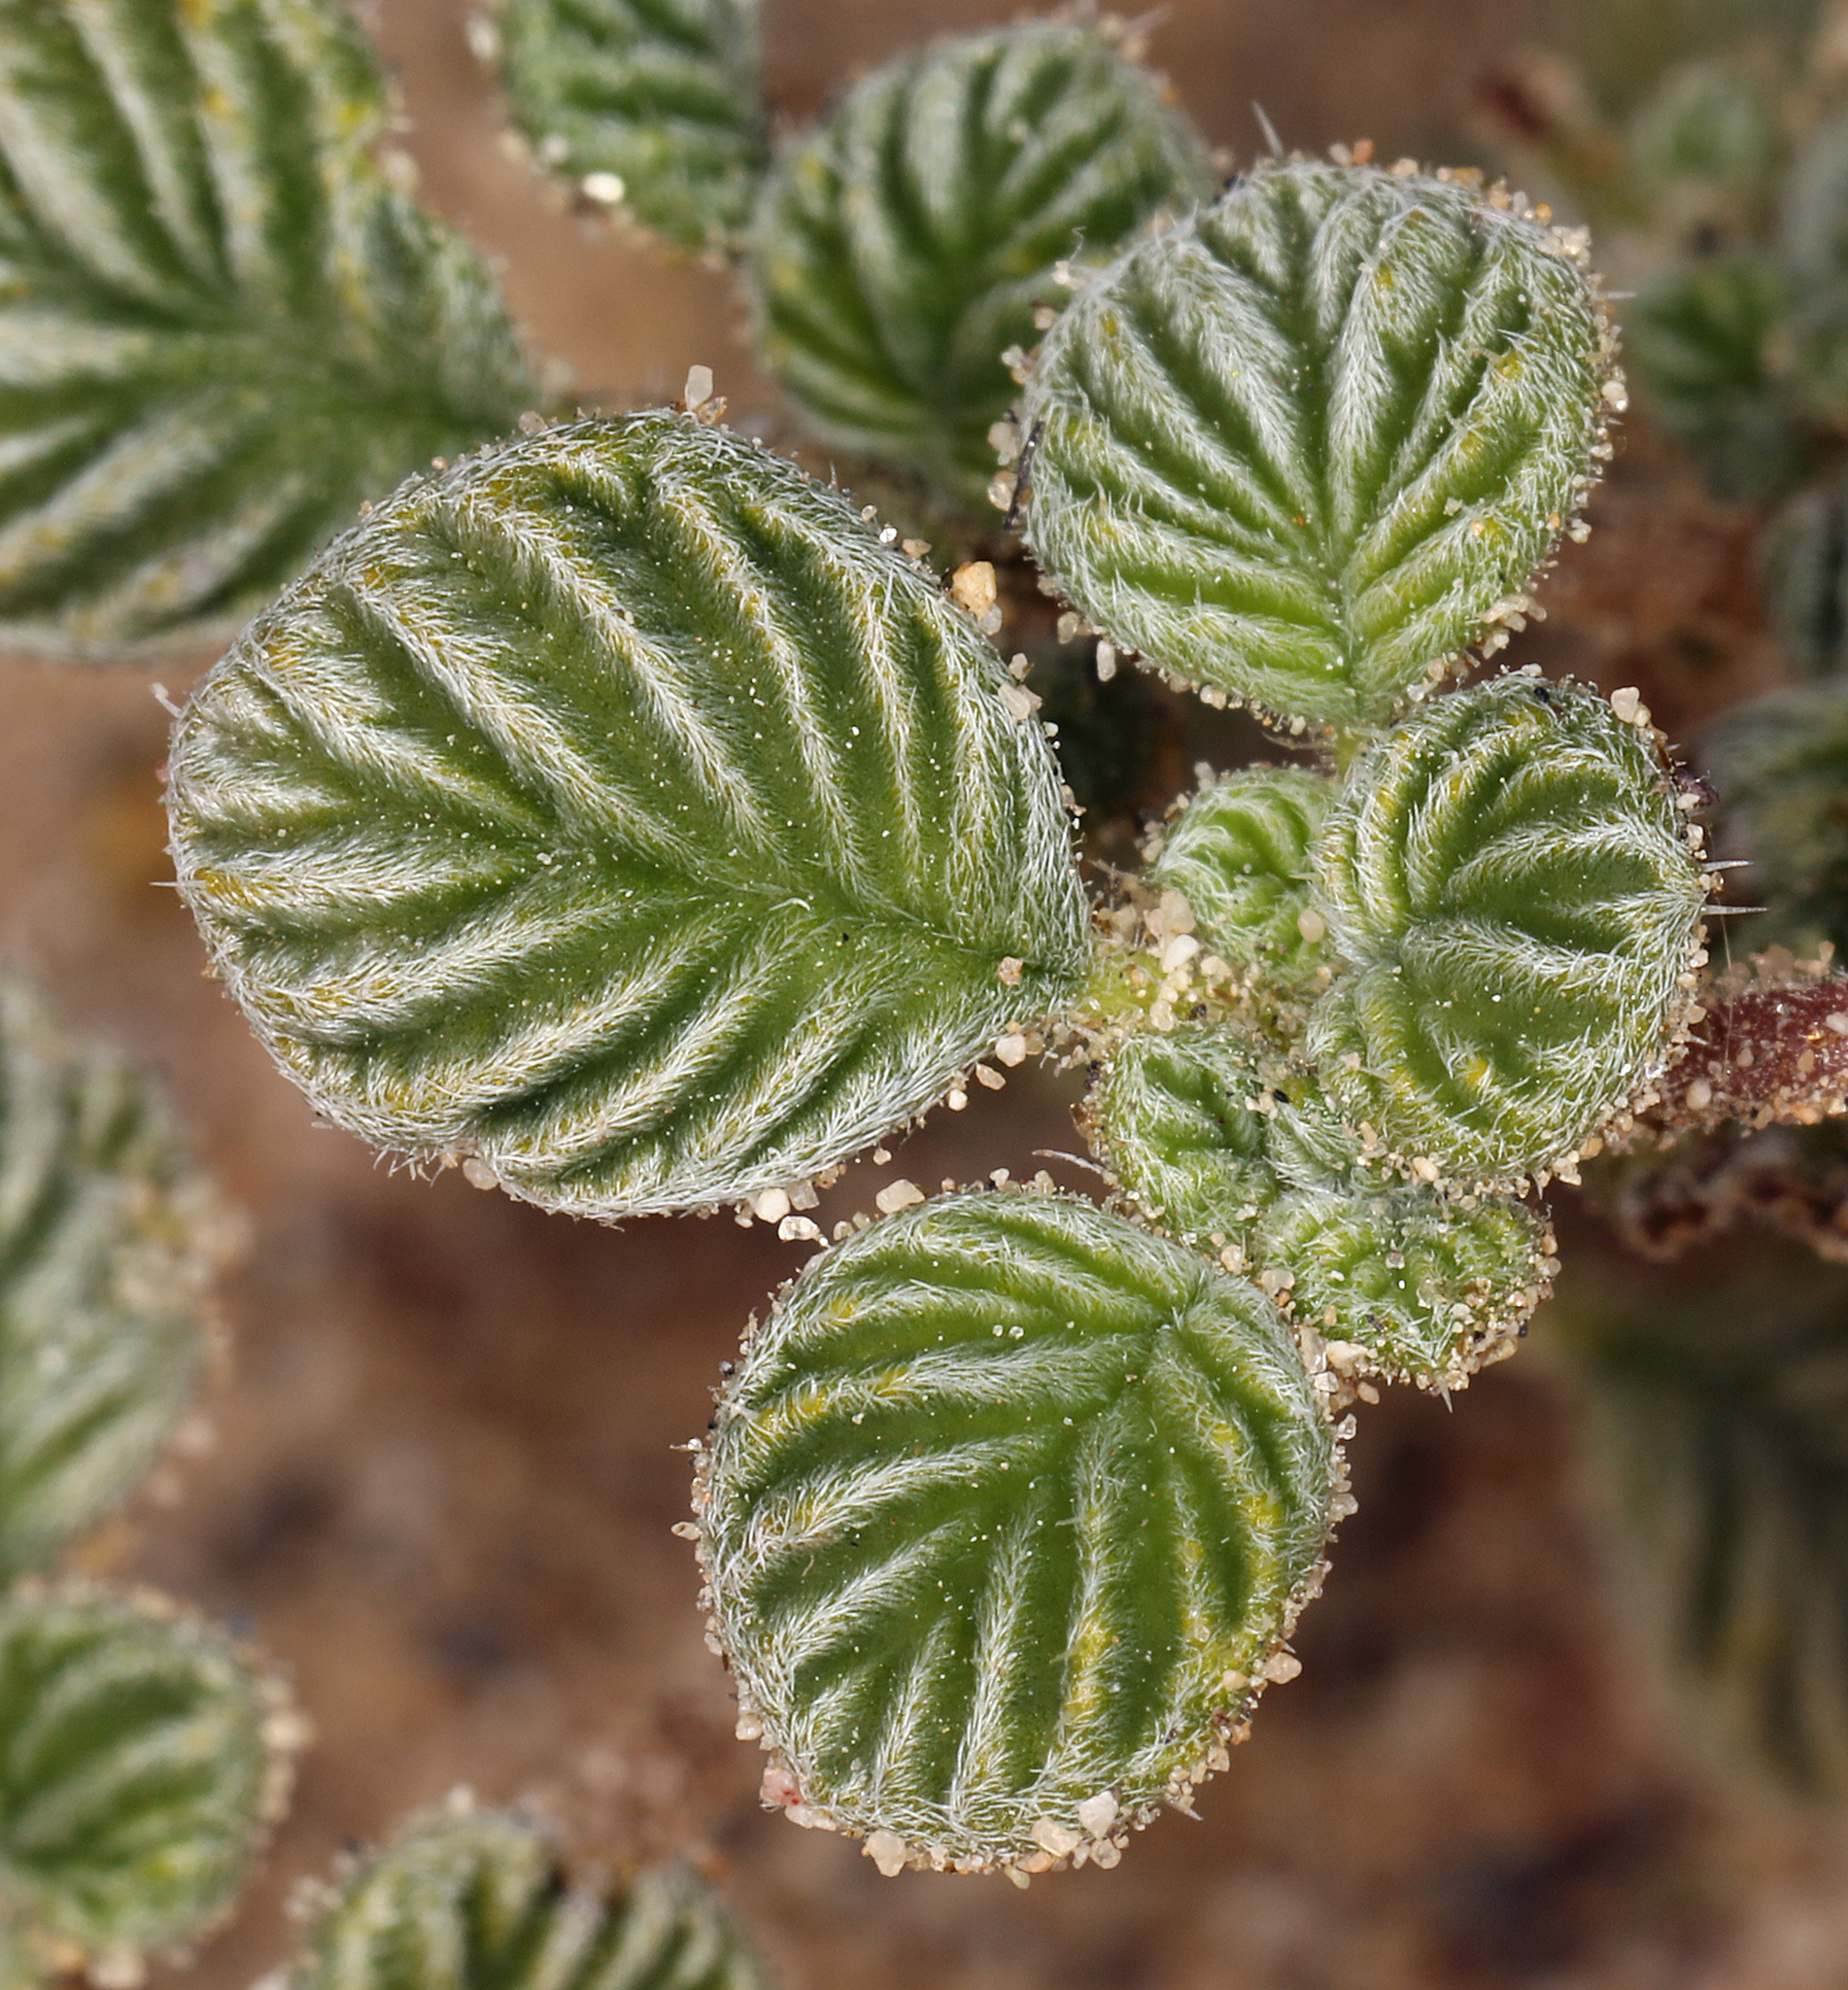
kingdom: Plantae
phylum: Tracheophyta
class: Magnoliopsida
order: Boraginales
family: Ehretiaceae
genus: Tiquilia
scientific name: Tiquilia plicata
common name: Fan-leaf tiquilia
